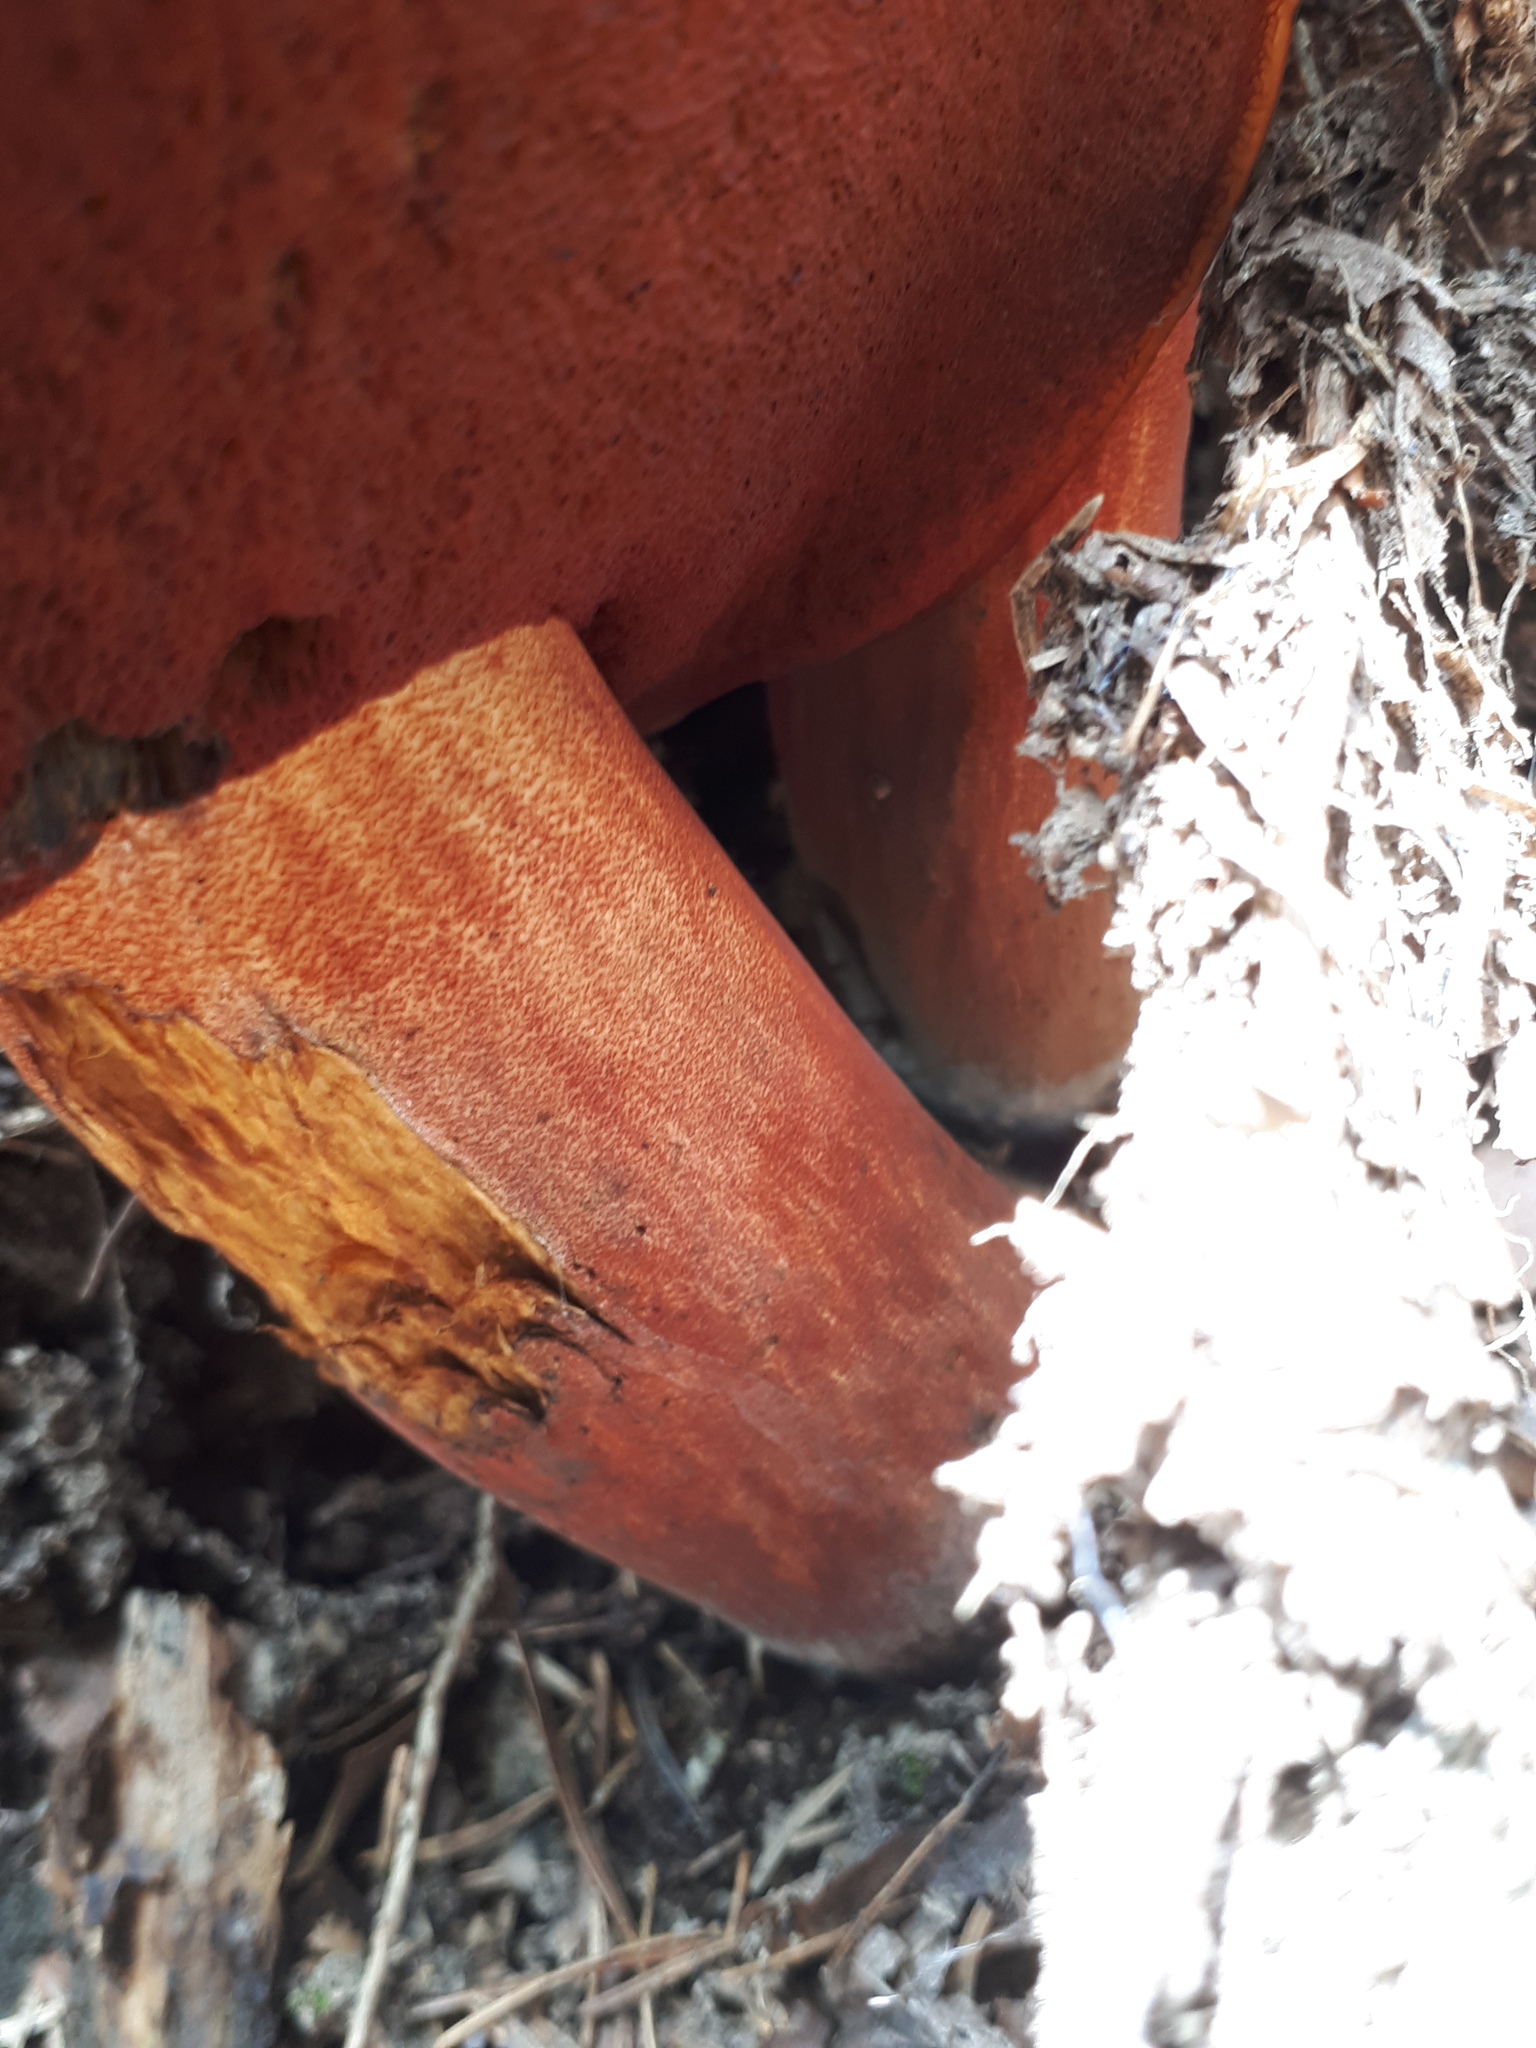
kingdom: Fungi
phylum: Basidiomycota
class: Agaricomycetes
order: Boletales
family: Boletaceae
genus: Neoboletus
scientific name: Neoboletus erythropus
